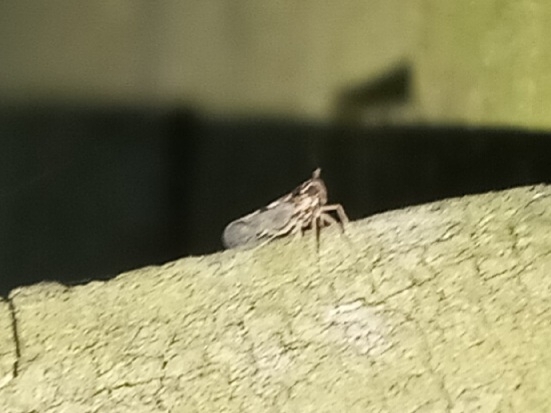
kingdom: Animalia
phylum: Arthropoda
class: Insecta
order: Hemiptera
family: Delphacidae
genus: Chionomus
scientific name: Chionomus
